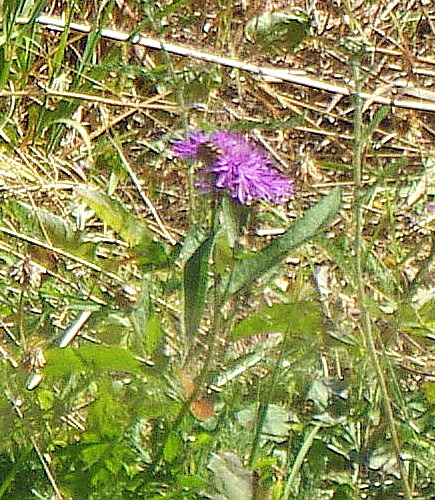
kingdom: Plantae
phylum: Tracheophyta
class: Magnoliopsida
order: Asterales
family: Asteraceae
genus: Centaurea
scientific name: Centaurea jacea
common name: Brown knapweed
